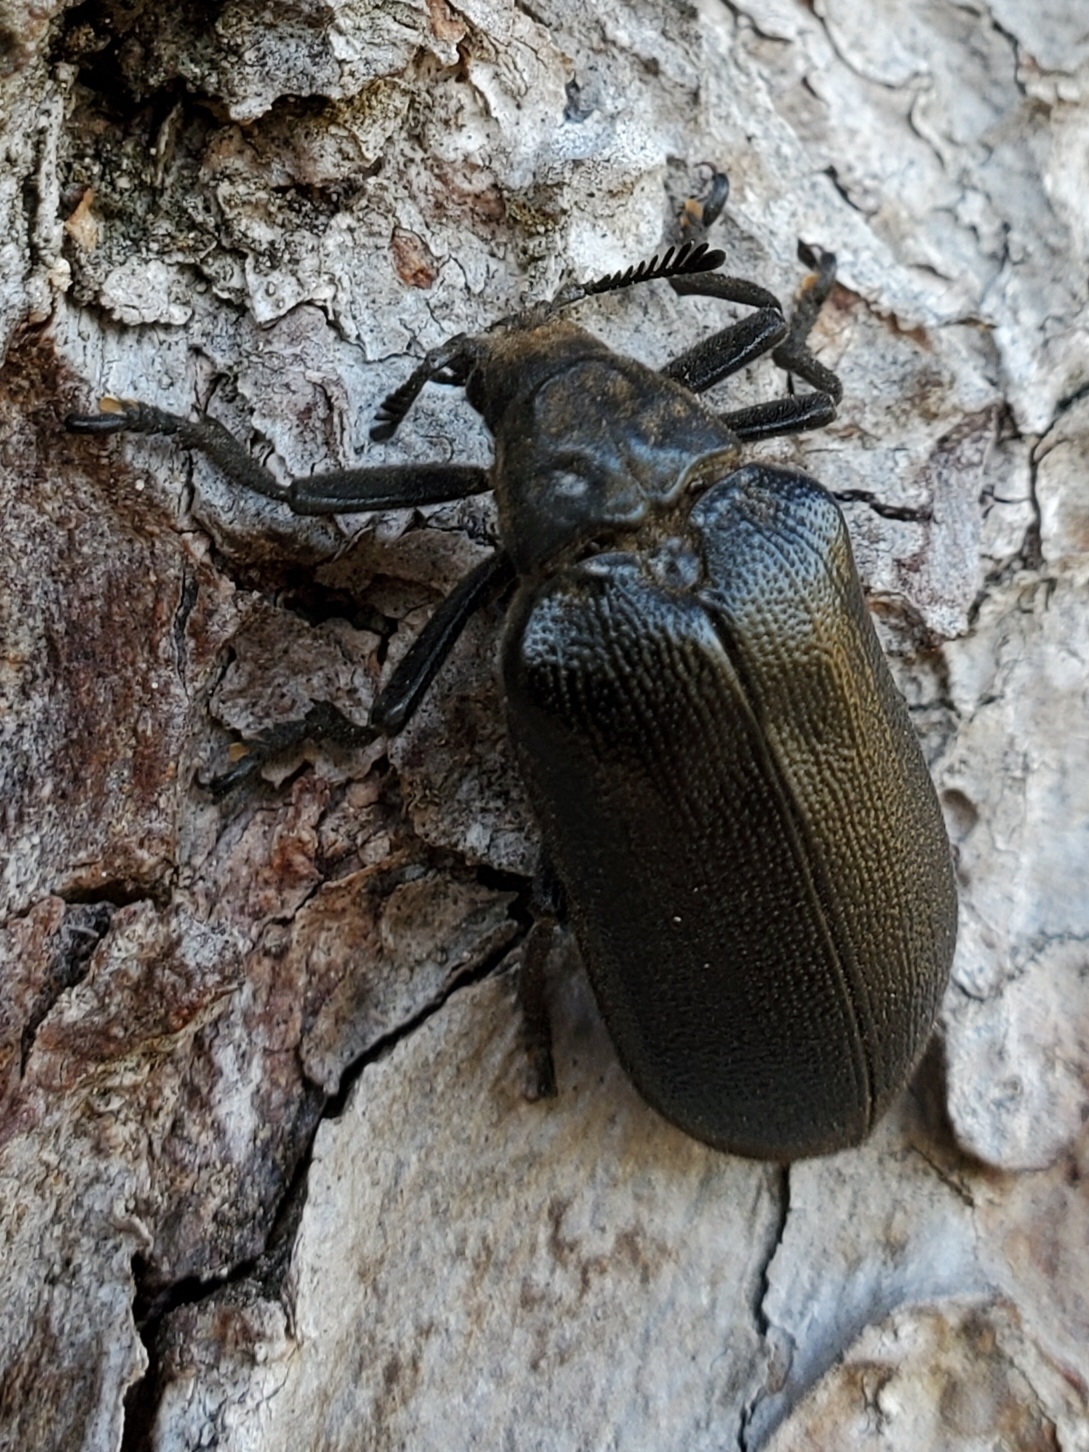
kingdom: Animalia
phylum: Arthropoda
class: Insecta
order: Coleoptera
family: Rhipiceridae
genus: Sandalus
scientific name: Sandalus niger
